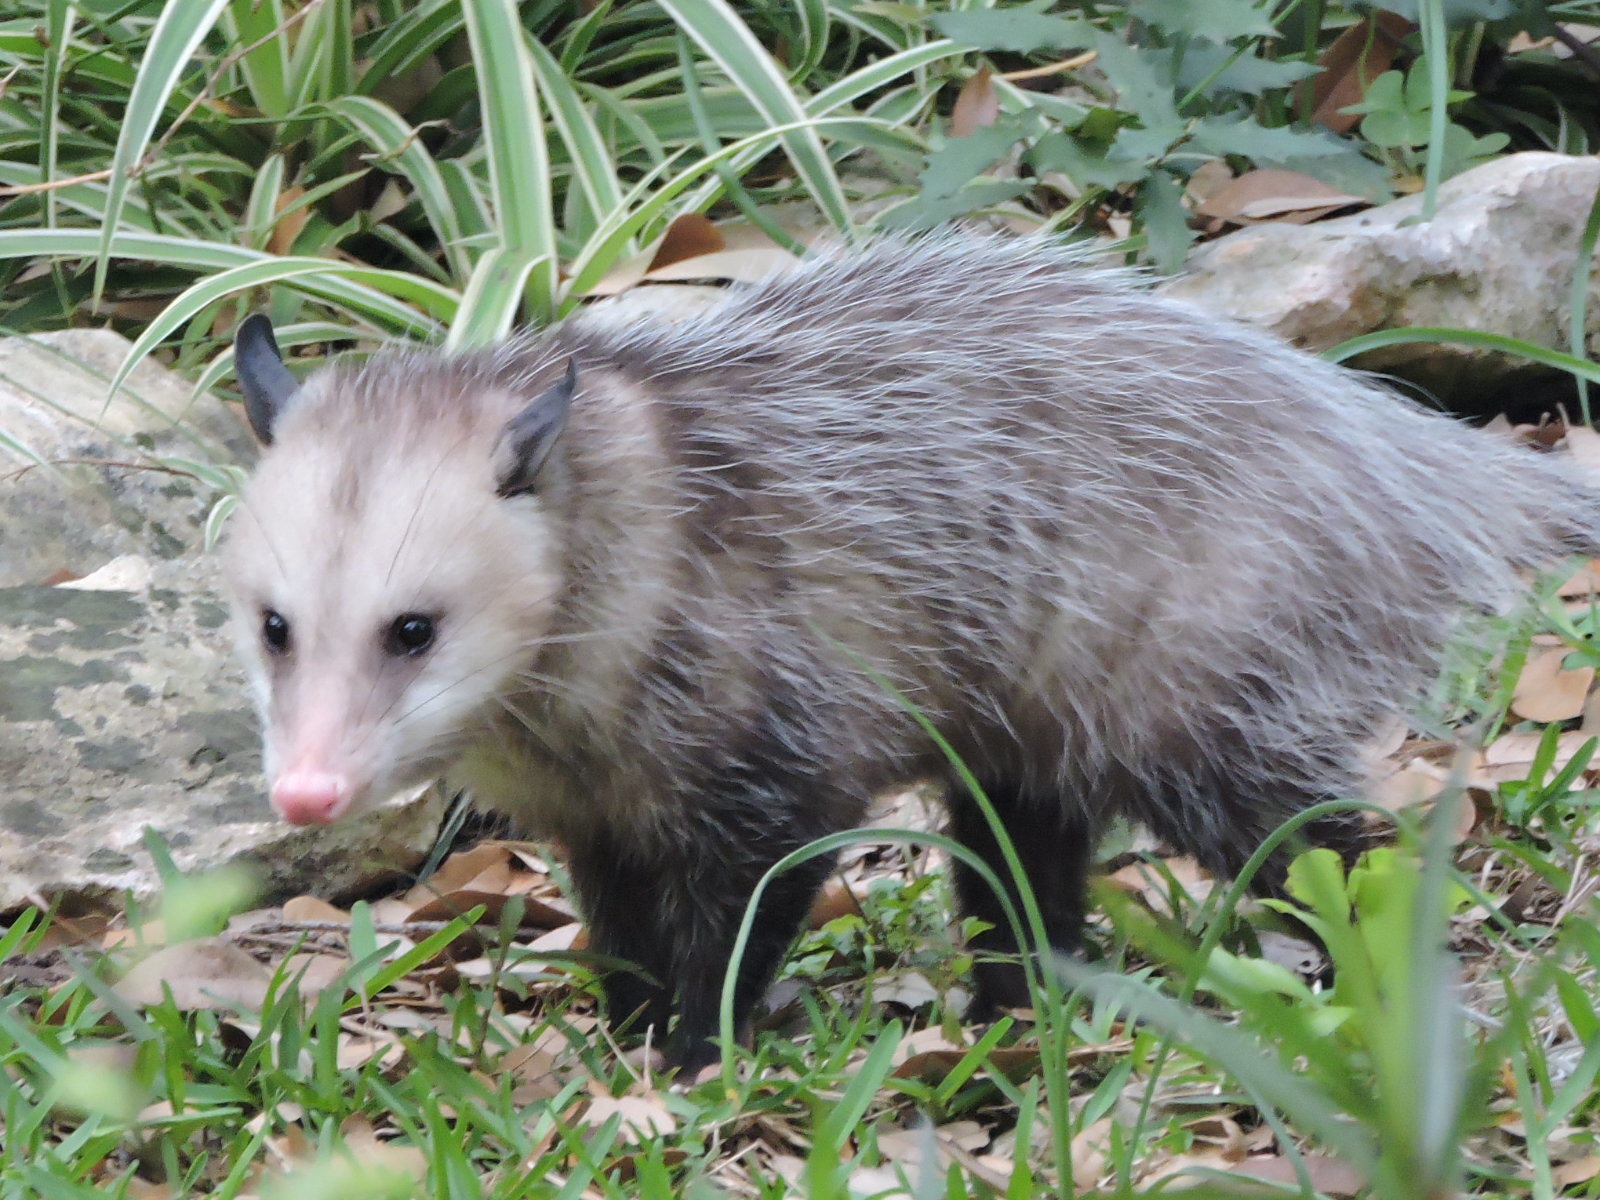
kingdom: Animalia
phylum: Chordata
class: Mammalia
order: Didelphimorphia
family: Didelphidae
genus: Didelphis
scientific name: Didelphis virginiana
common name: Virginia opossum
